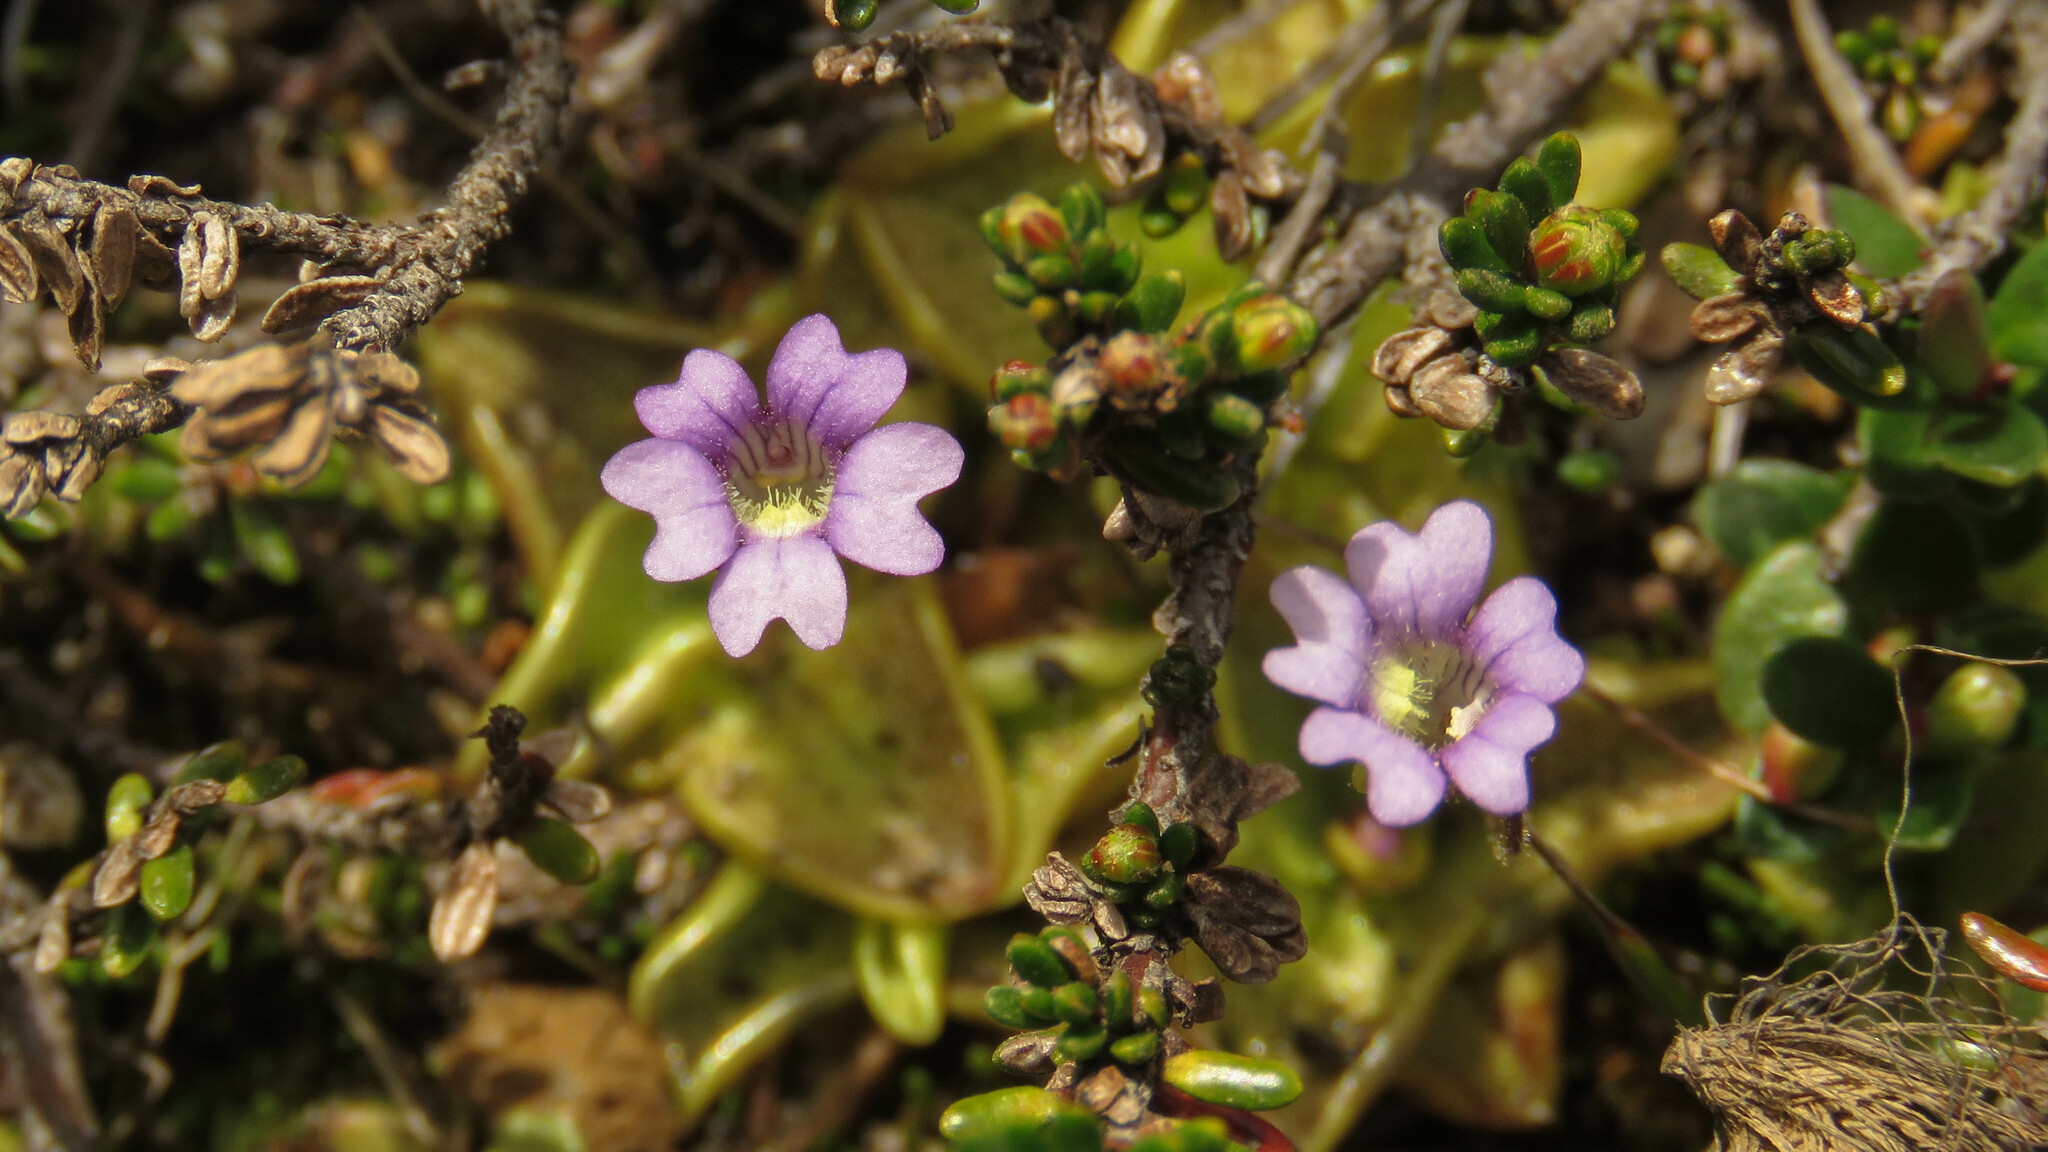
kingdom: Plantae
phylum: Tracheophyta
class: Magnoliopsida
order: Lamiales
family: Lentibulariaceae
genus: Pinguicula
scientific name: Pinguicula australandina
